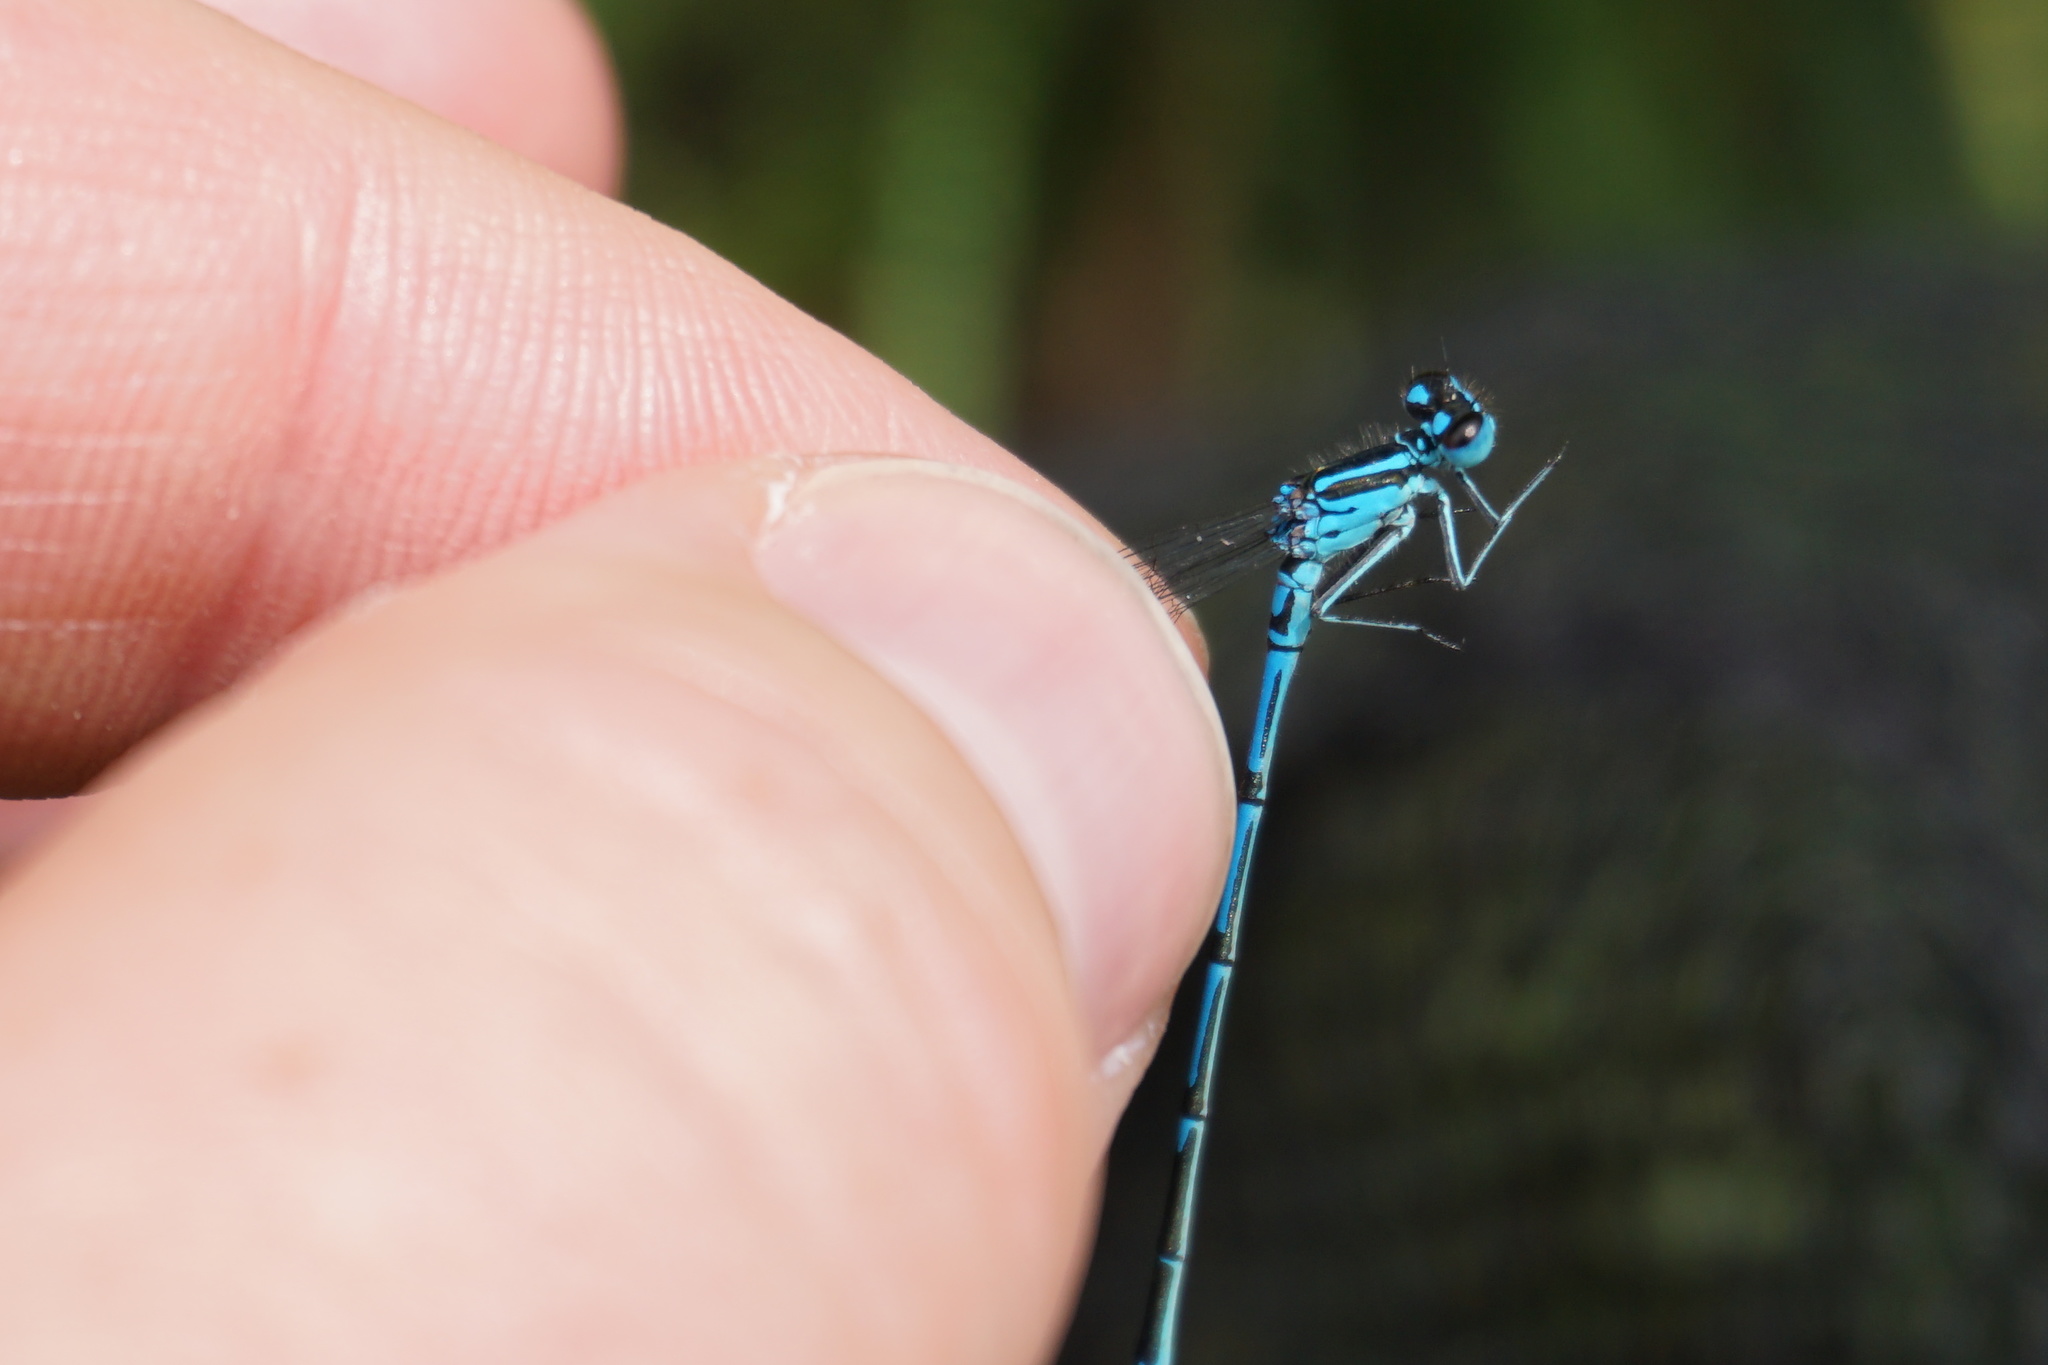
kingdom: Animalia
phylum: Arthropoda
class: Insecta
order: Odonata
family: Coenagrionidae
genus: Coenagrion
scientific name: Coenagrion puella
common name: Azure damselfly
